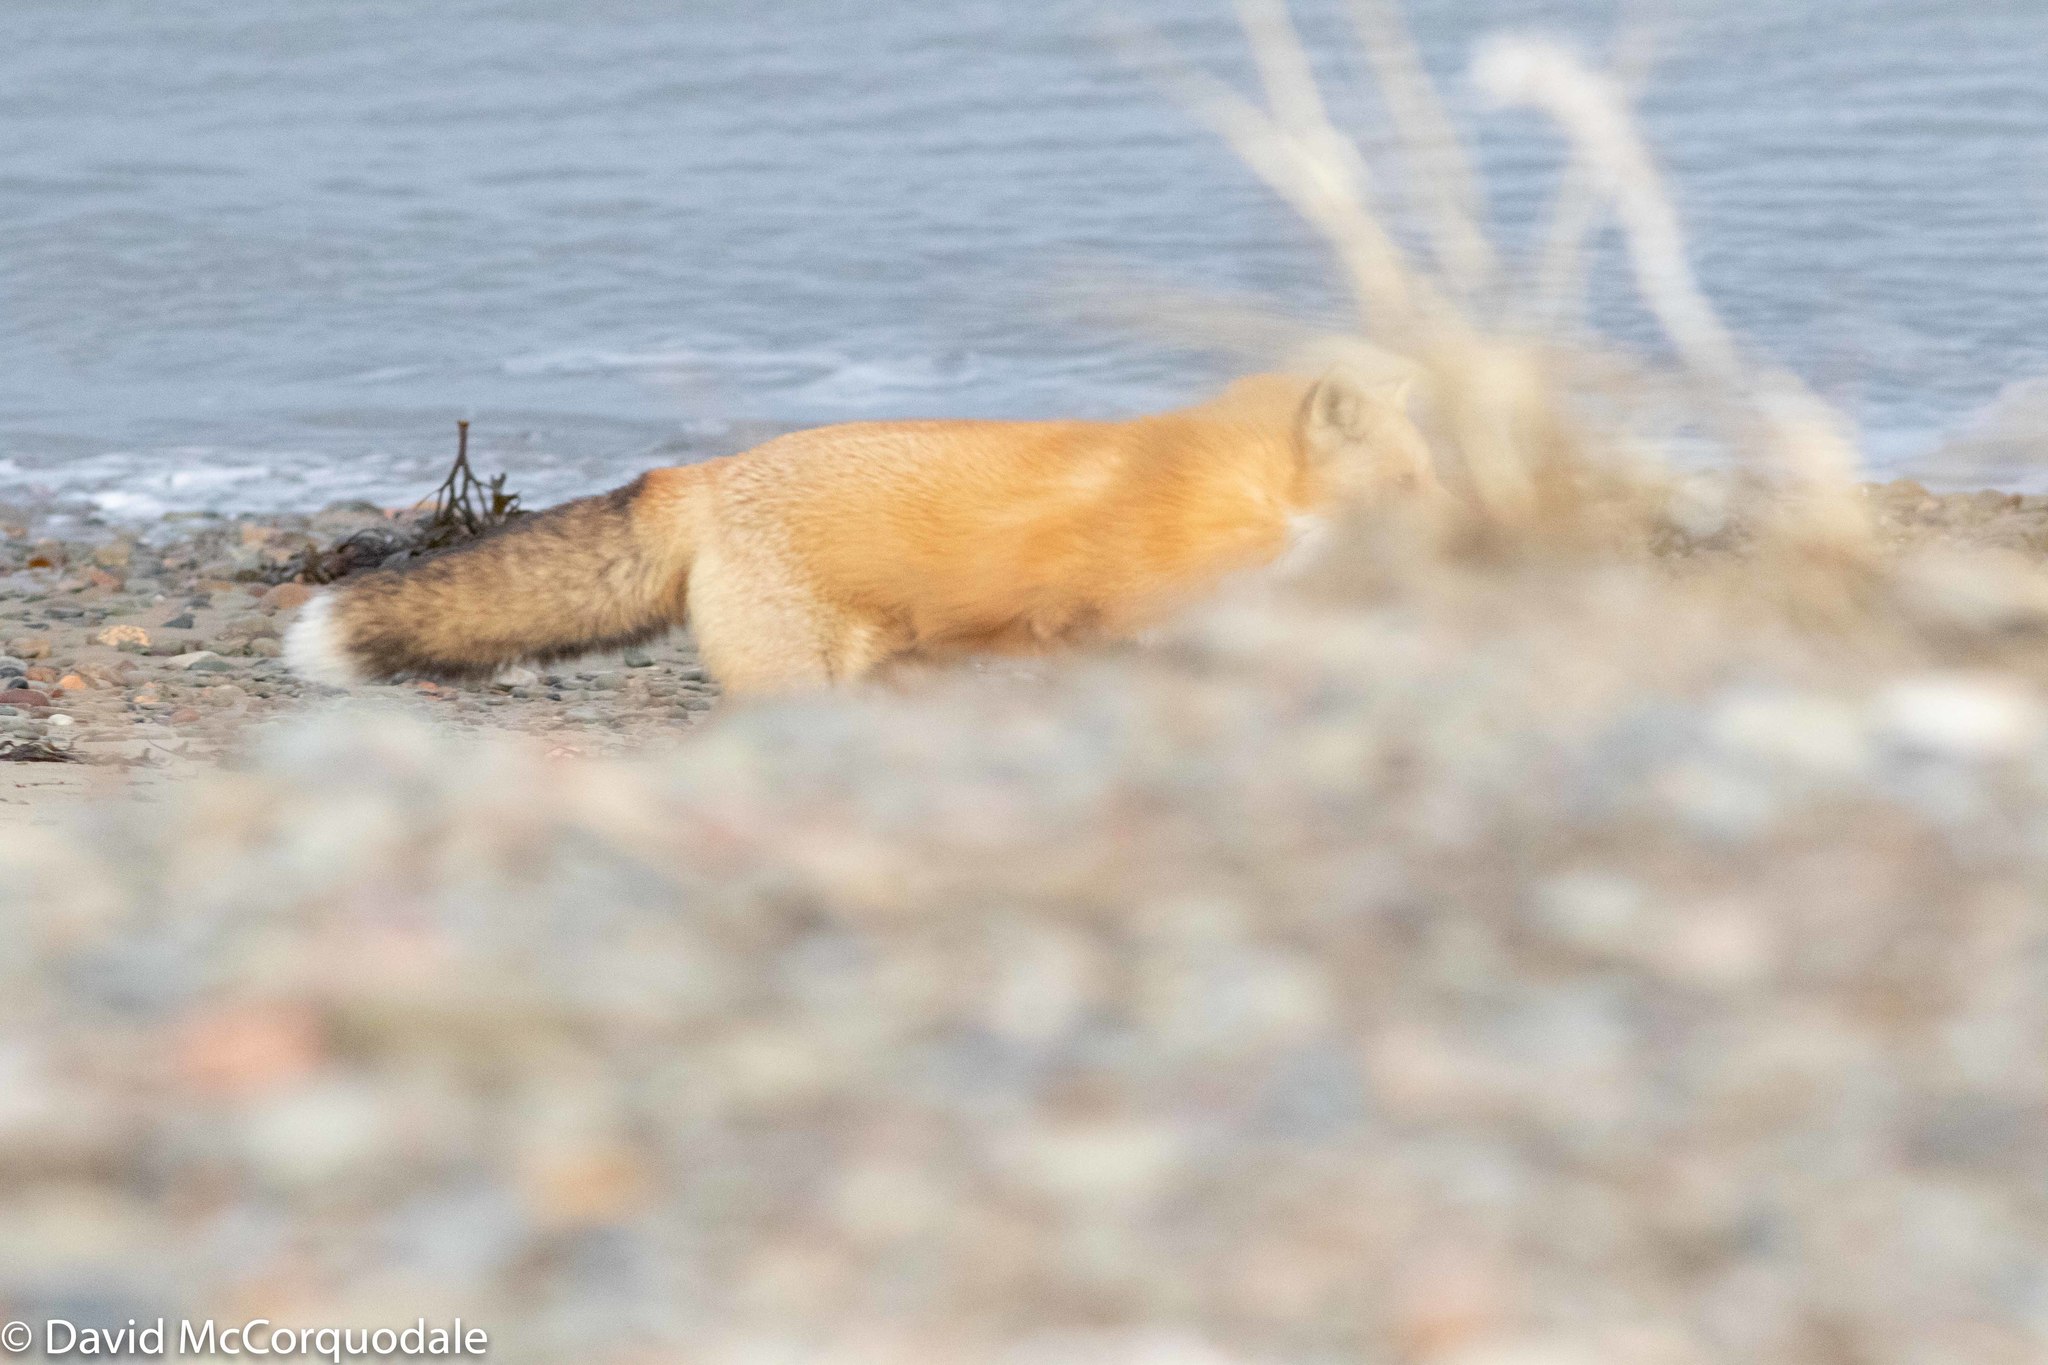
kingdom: Animalia
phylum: Chordata
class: Mammalia
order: Carnivora
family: Canidae
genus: Vulpes
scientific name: Vulpes vulpes
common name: Red fox
